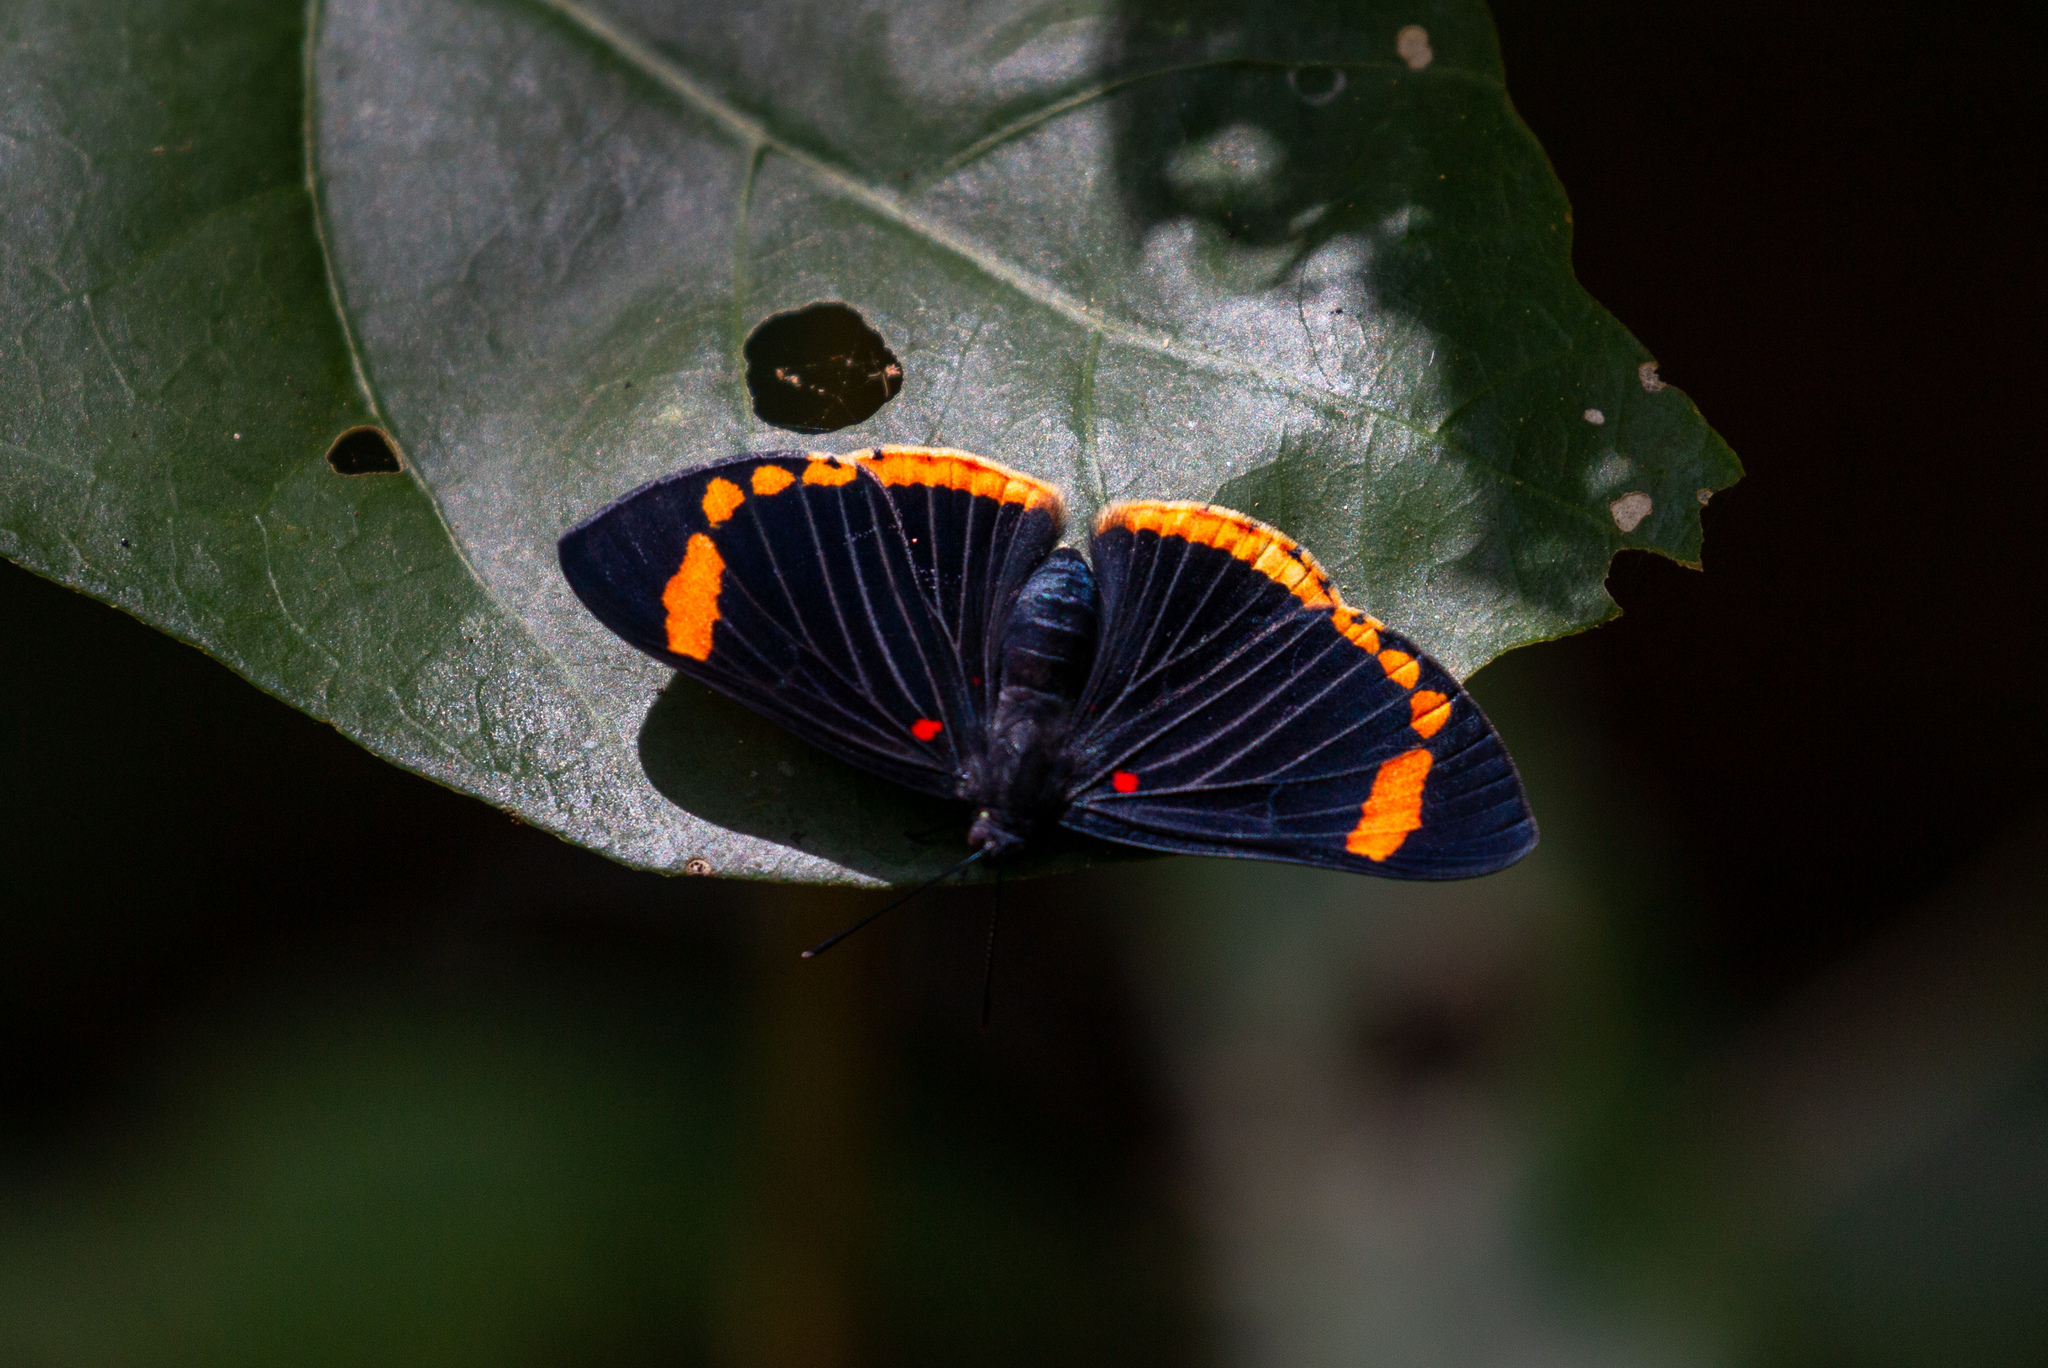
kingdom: Animalia
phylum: Arthropoda
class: Insecta
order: Lepidoptera
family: Lycaenidae
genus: Melanis
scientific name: Melanis xenia
